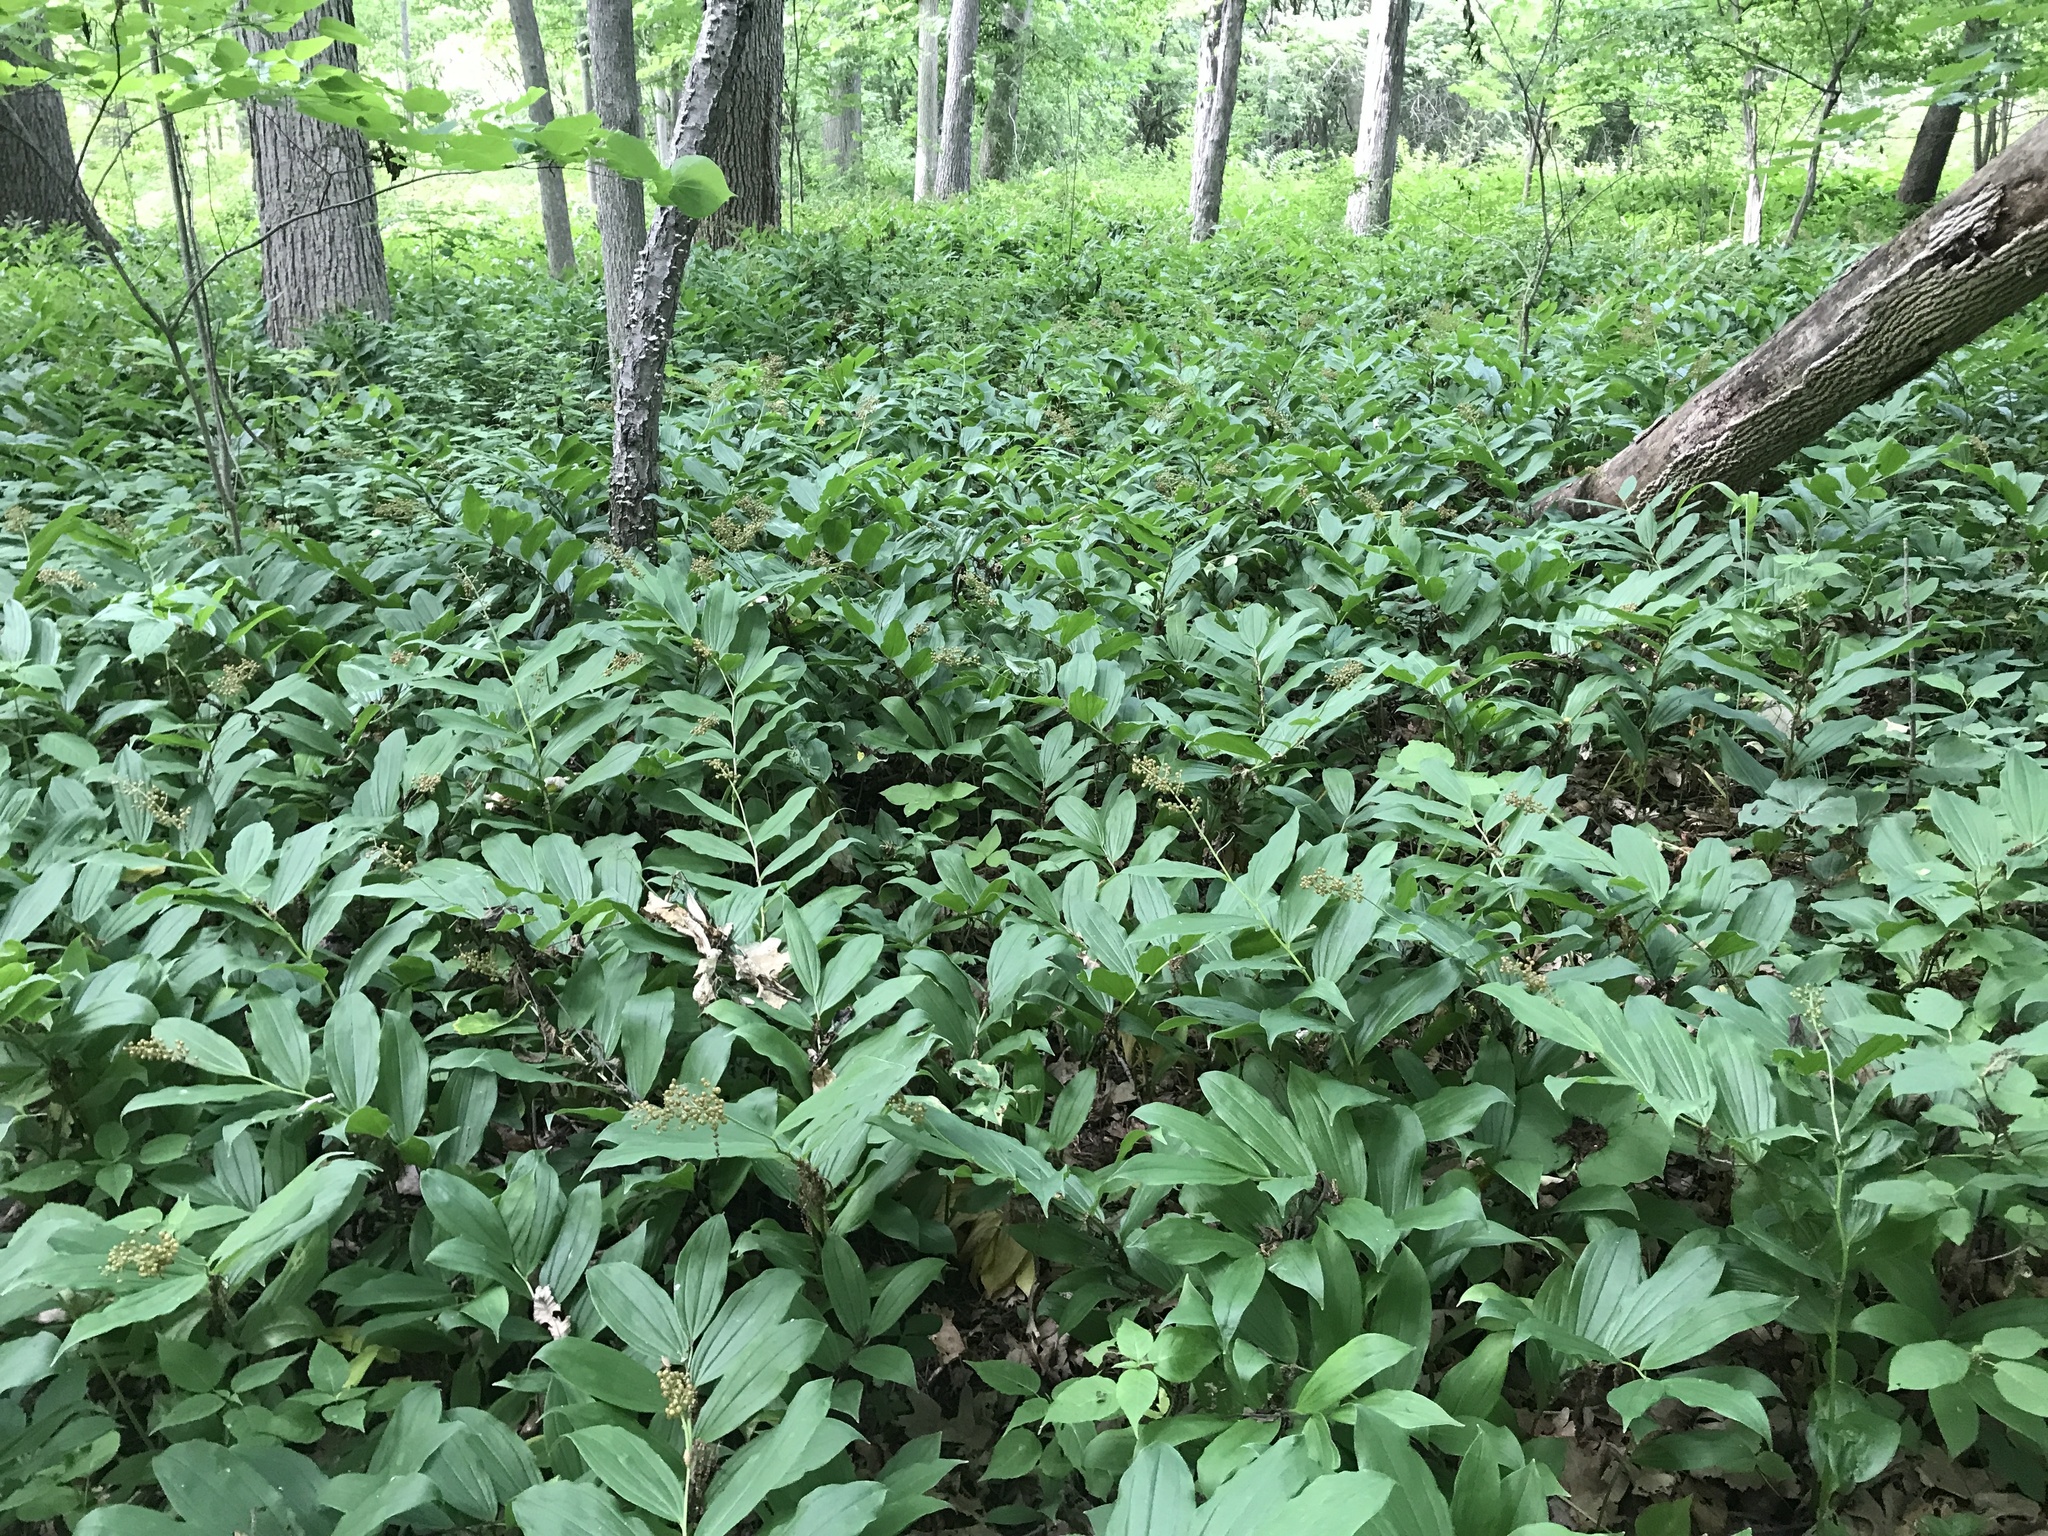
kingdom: Plantae
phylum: Tracheophyta
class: Liliopsida
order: Asparagales
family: Asparagaceae
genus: Maianthemum
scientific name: Maianthemum racemosum
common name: False spikenard
